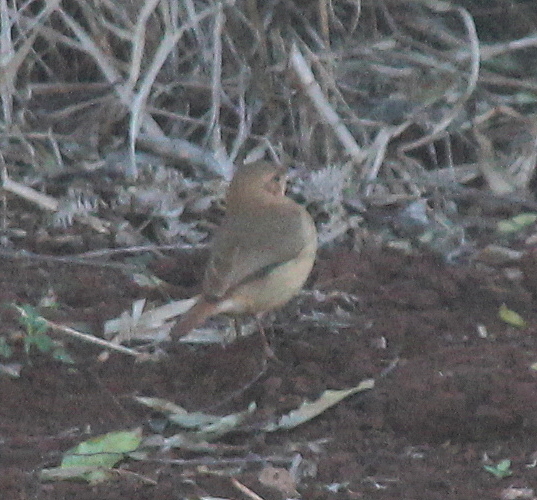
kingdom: Animalia
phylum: Chordata
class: Aves
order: Passeriformes
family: Furnariidae
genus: Furnarius
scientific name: Furnarius rufus
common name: Rufous hornero
